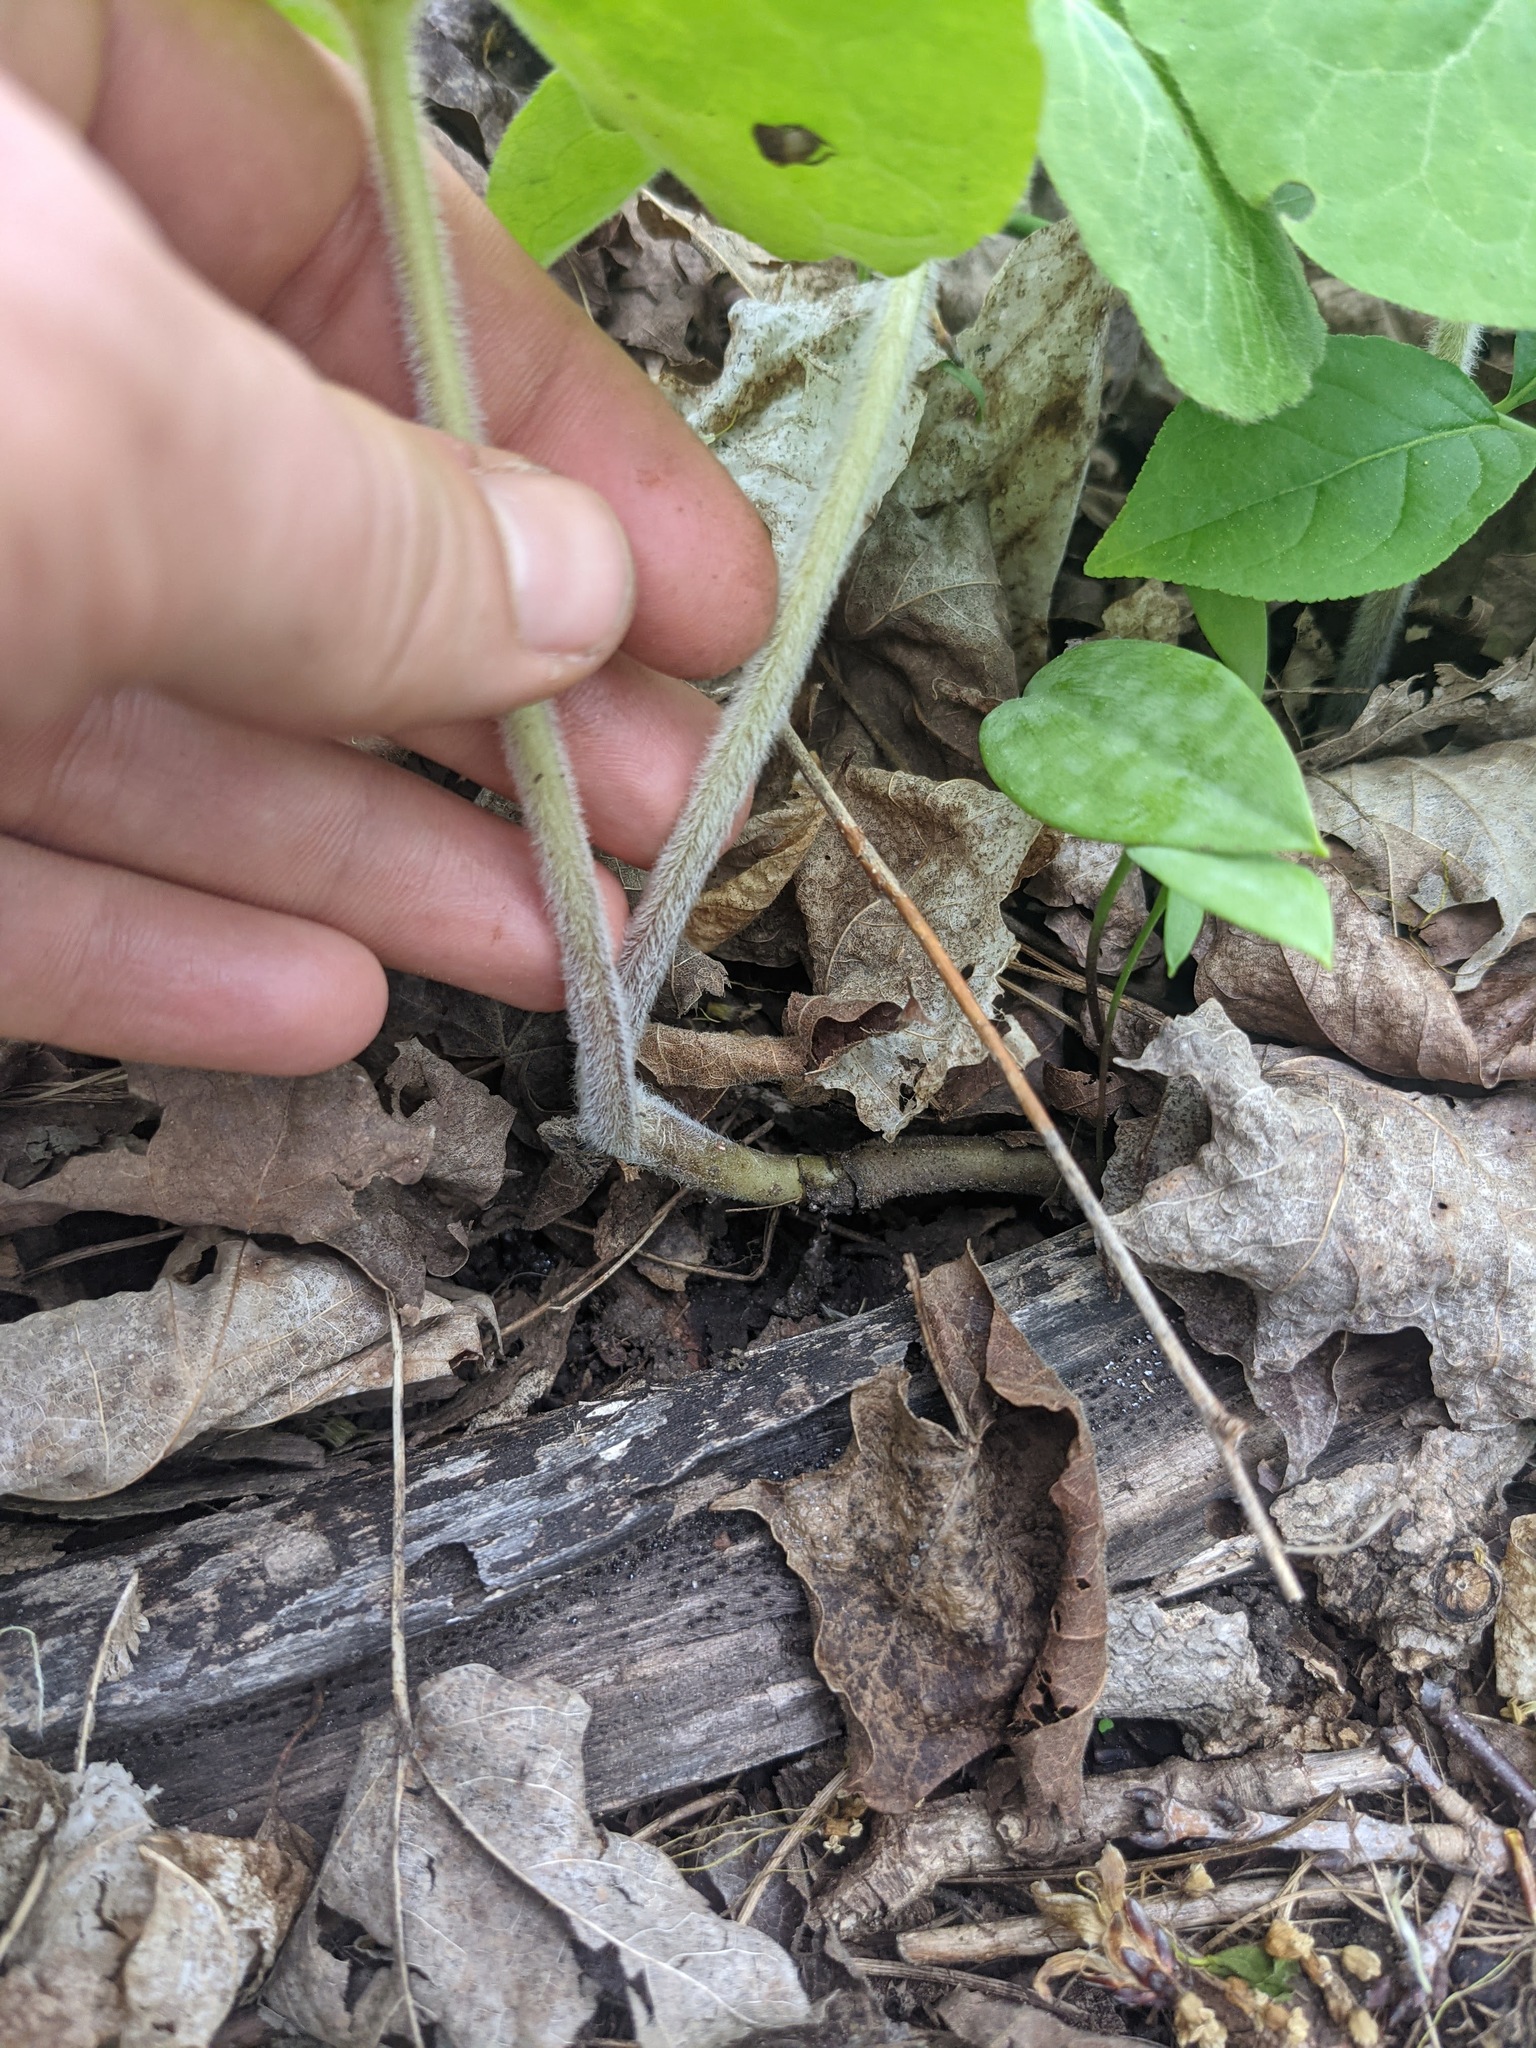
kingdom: Plantae
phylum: Tracheophyta
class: Magnoliopsida
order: Piperales
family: Aristolochiaceae
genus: Asarum
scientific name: Asarum canadense
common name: Wild ginger
